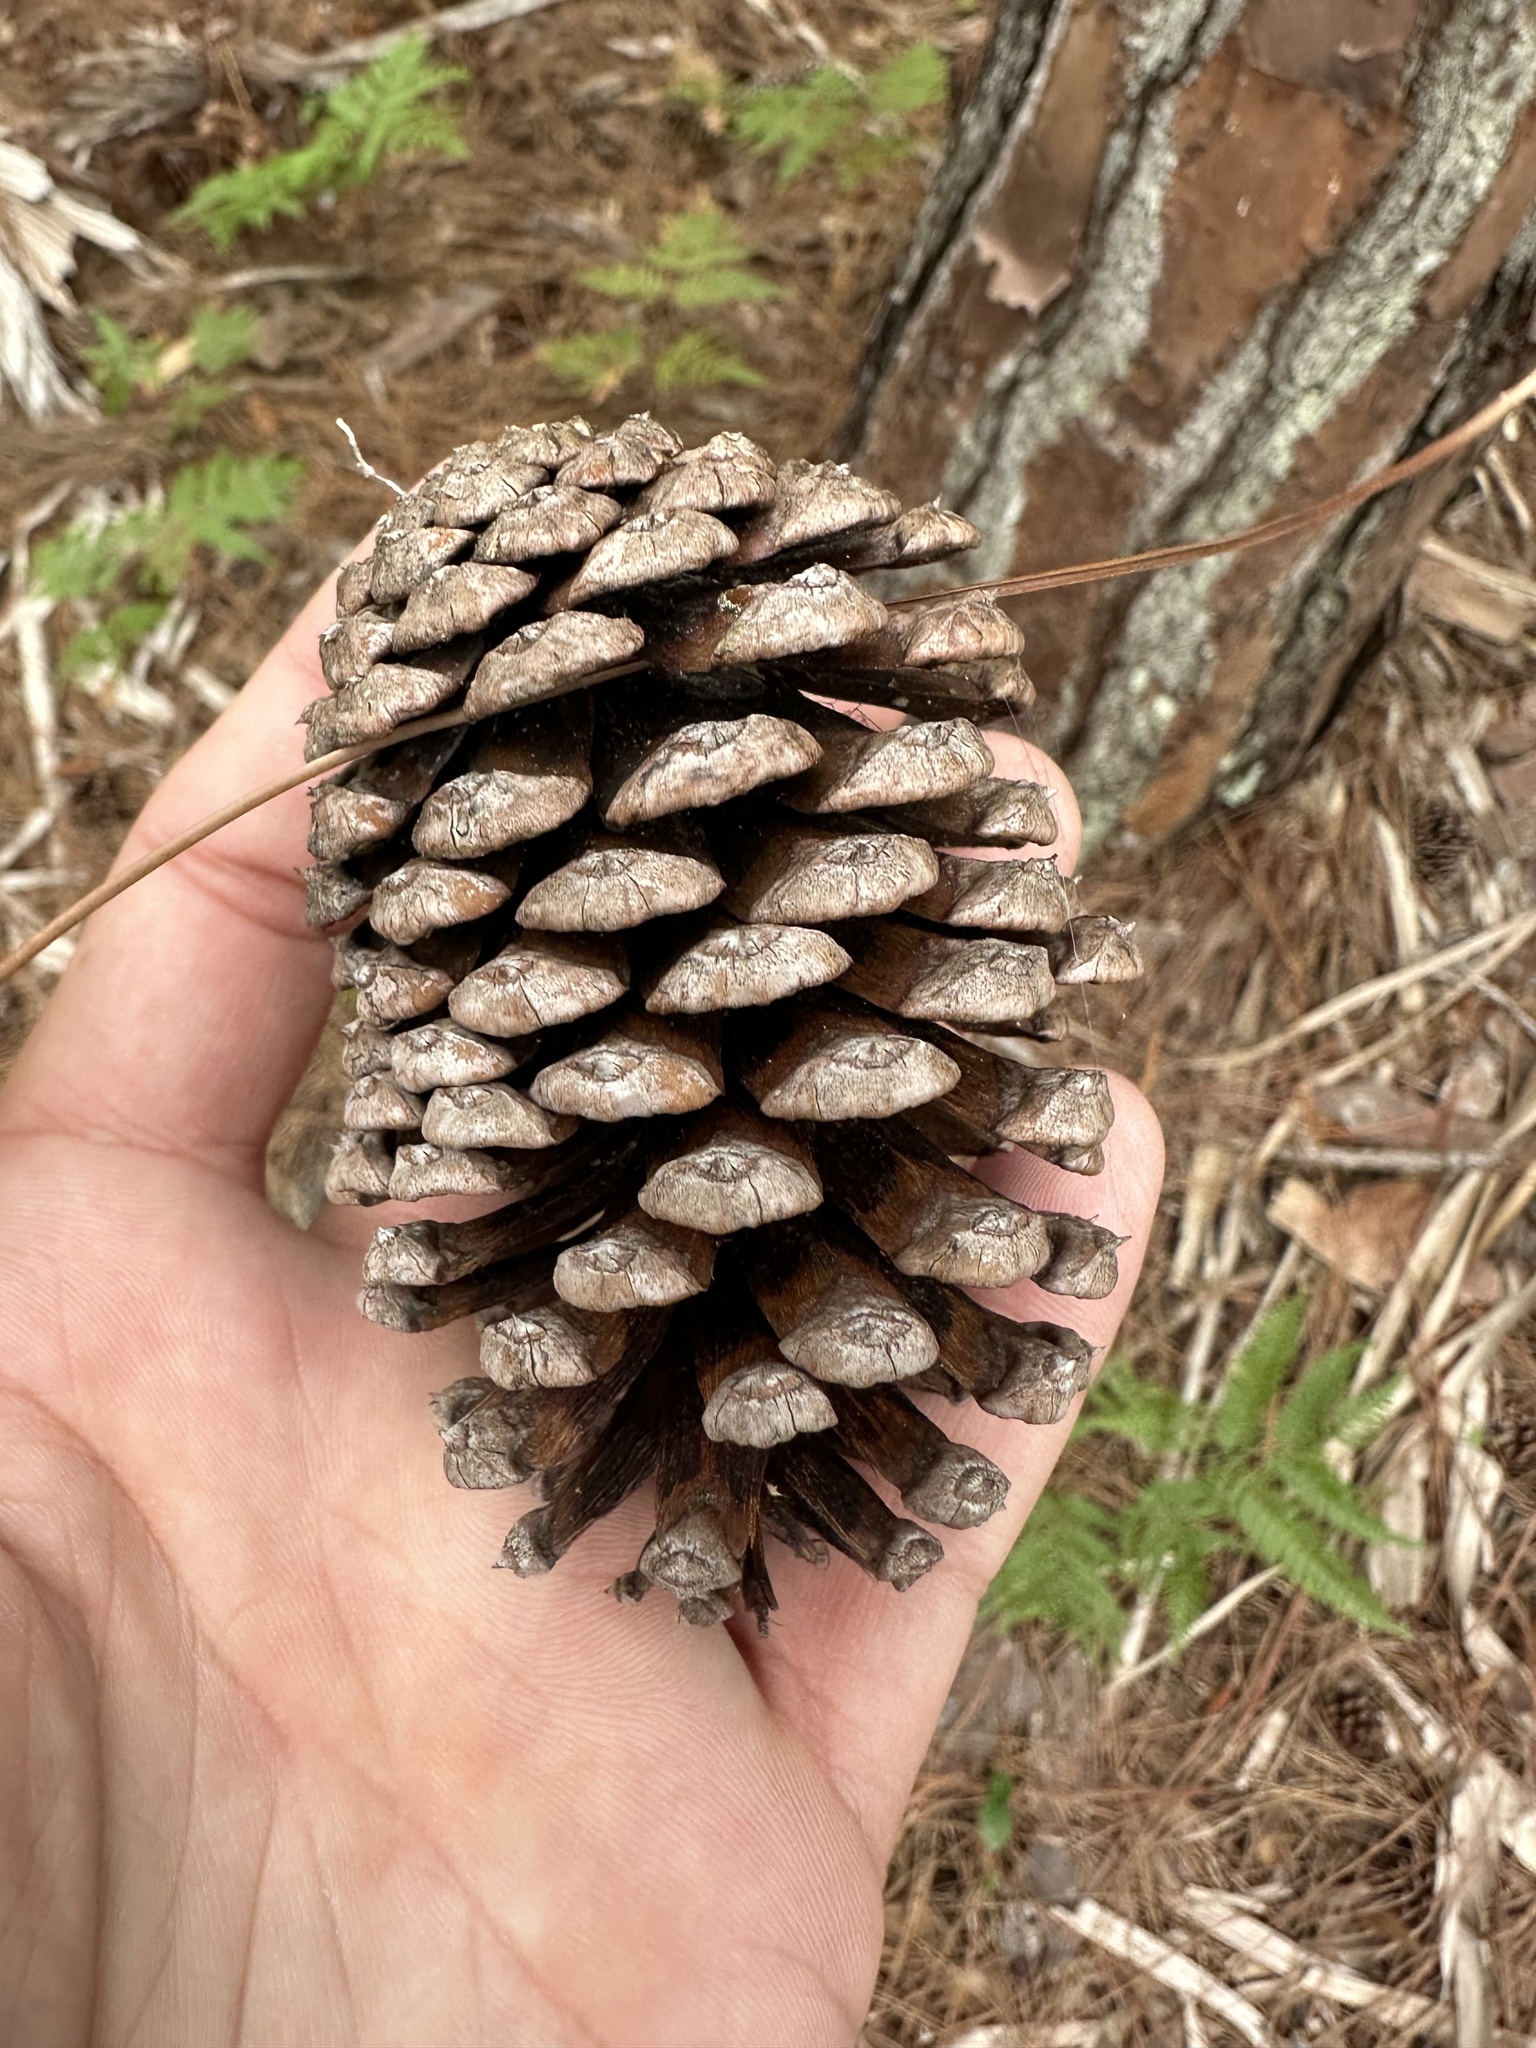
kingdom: Plantae
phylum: Tracheophyta
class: Pinopsida
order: Pinales
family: Pinaceae
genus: Pinus
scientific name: Pinus elliottii
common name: Slash pine
